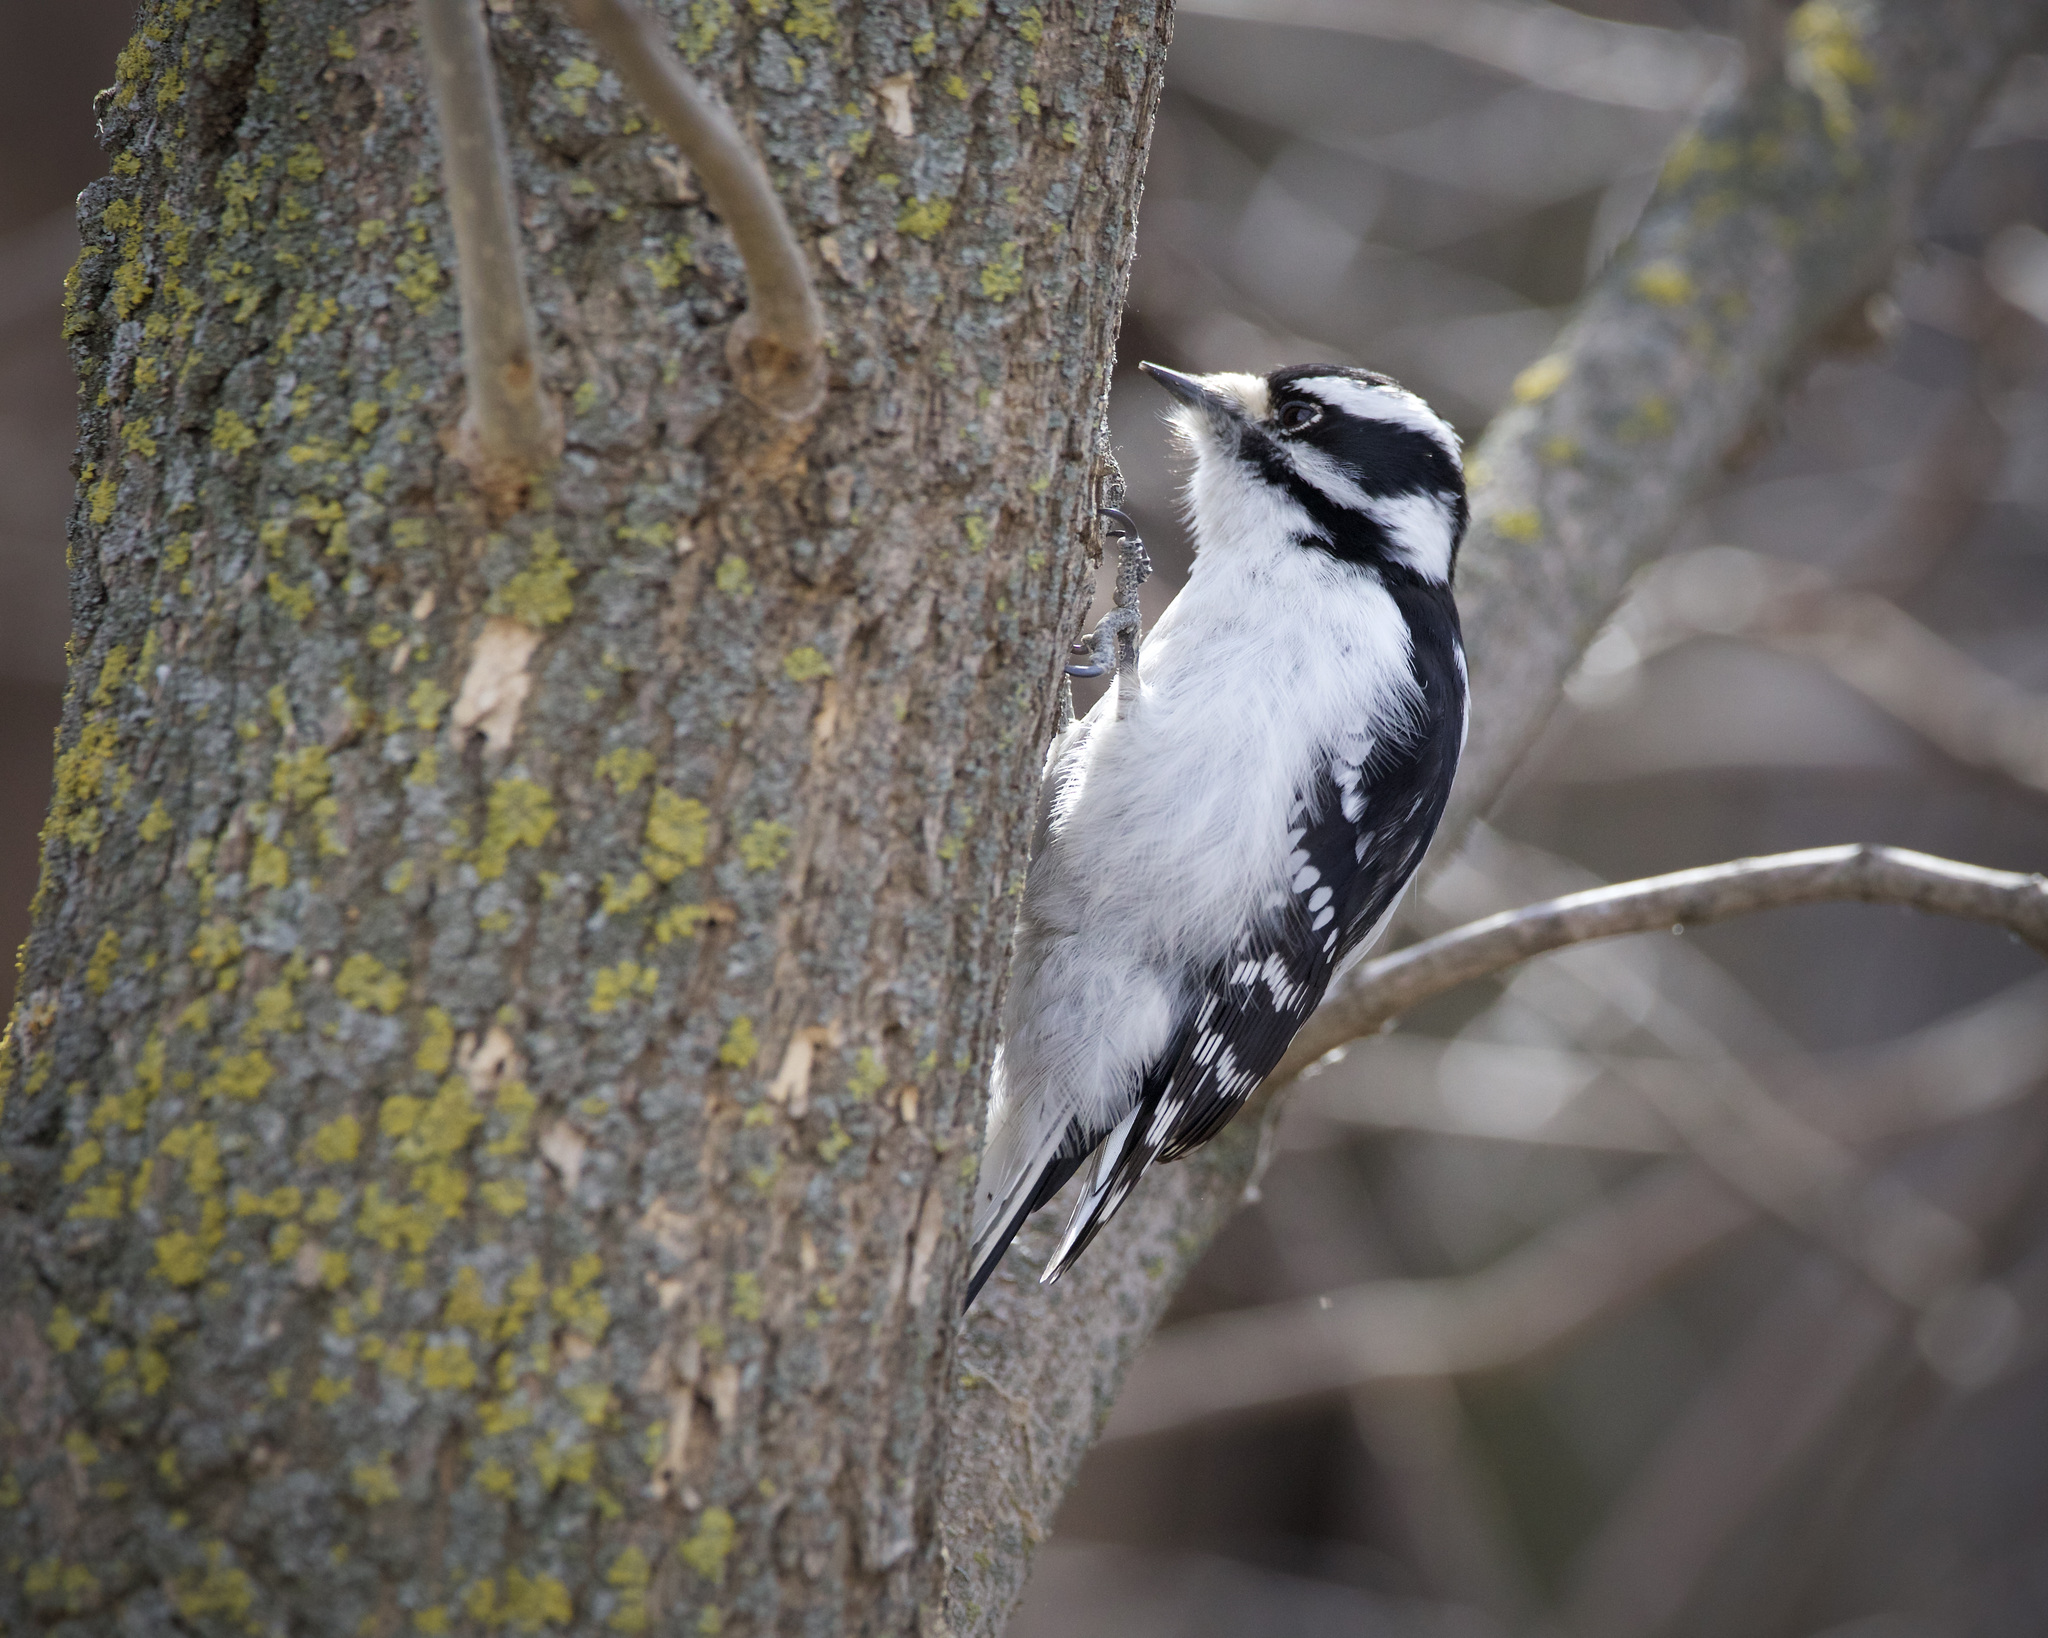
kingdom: Animalia
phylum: Chordata
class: Aves
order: Piciformes
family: Picidae
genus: Dryobates
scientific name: Dryobates pubescens
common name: Downy woodpecker
